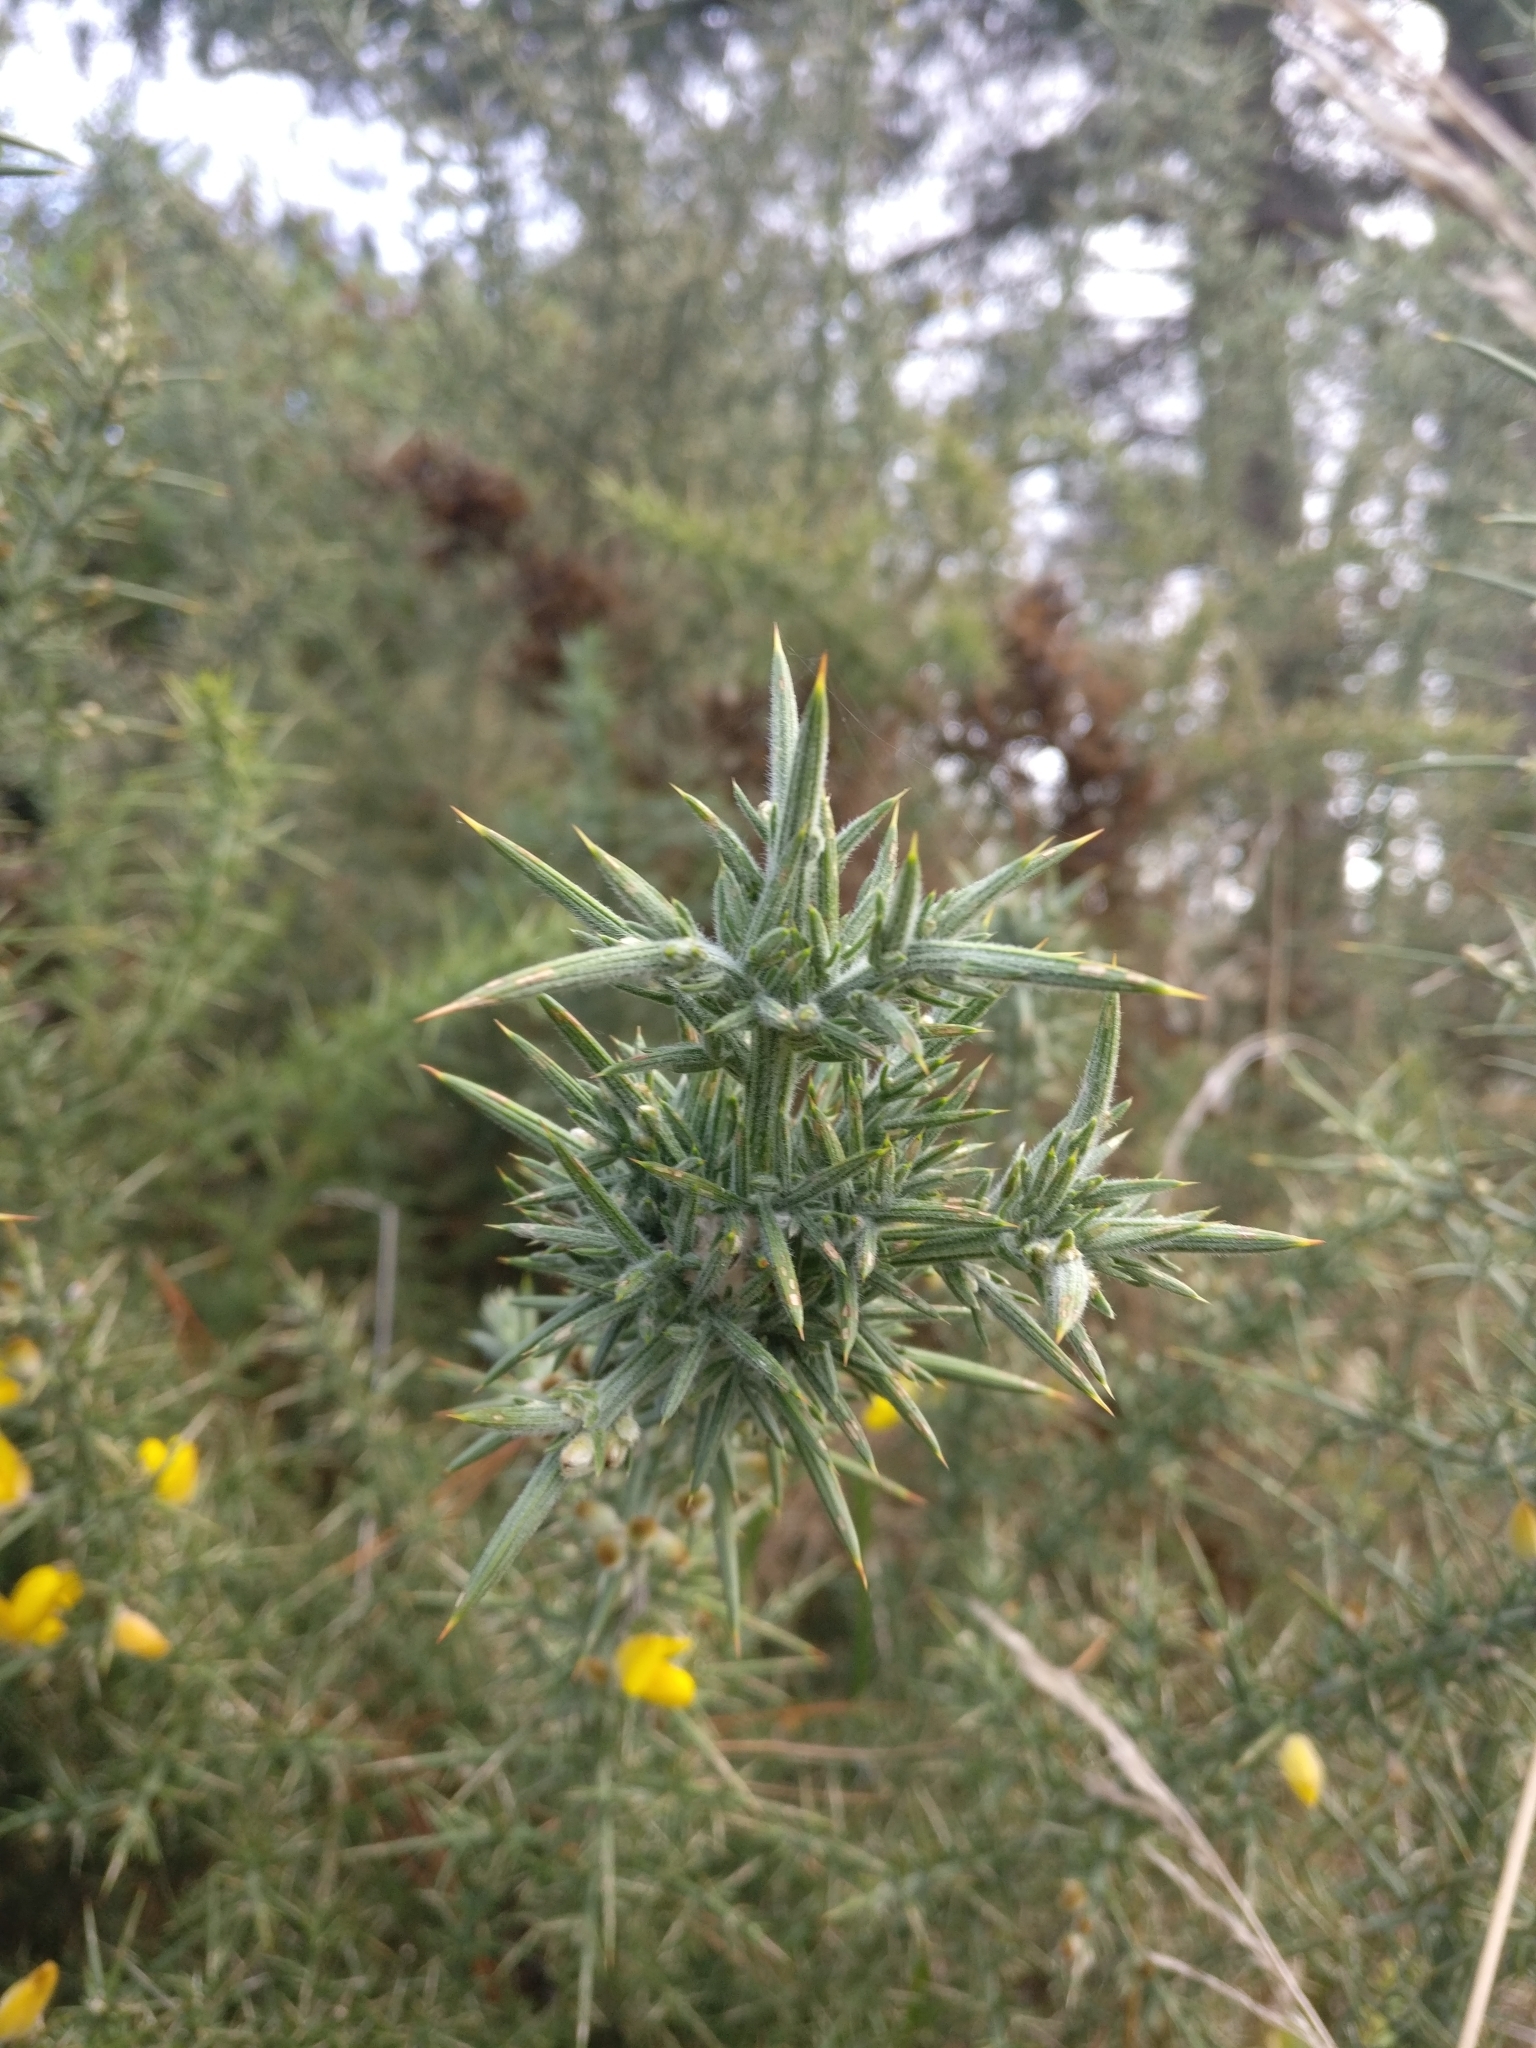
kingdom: Plantae
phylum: Tracheophyta
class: Magnoliopsida
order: Fabales
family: Fabaceae
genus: Ulex
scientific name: Ulex europaeus
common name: Common gorse
